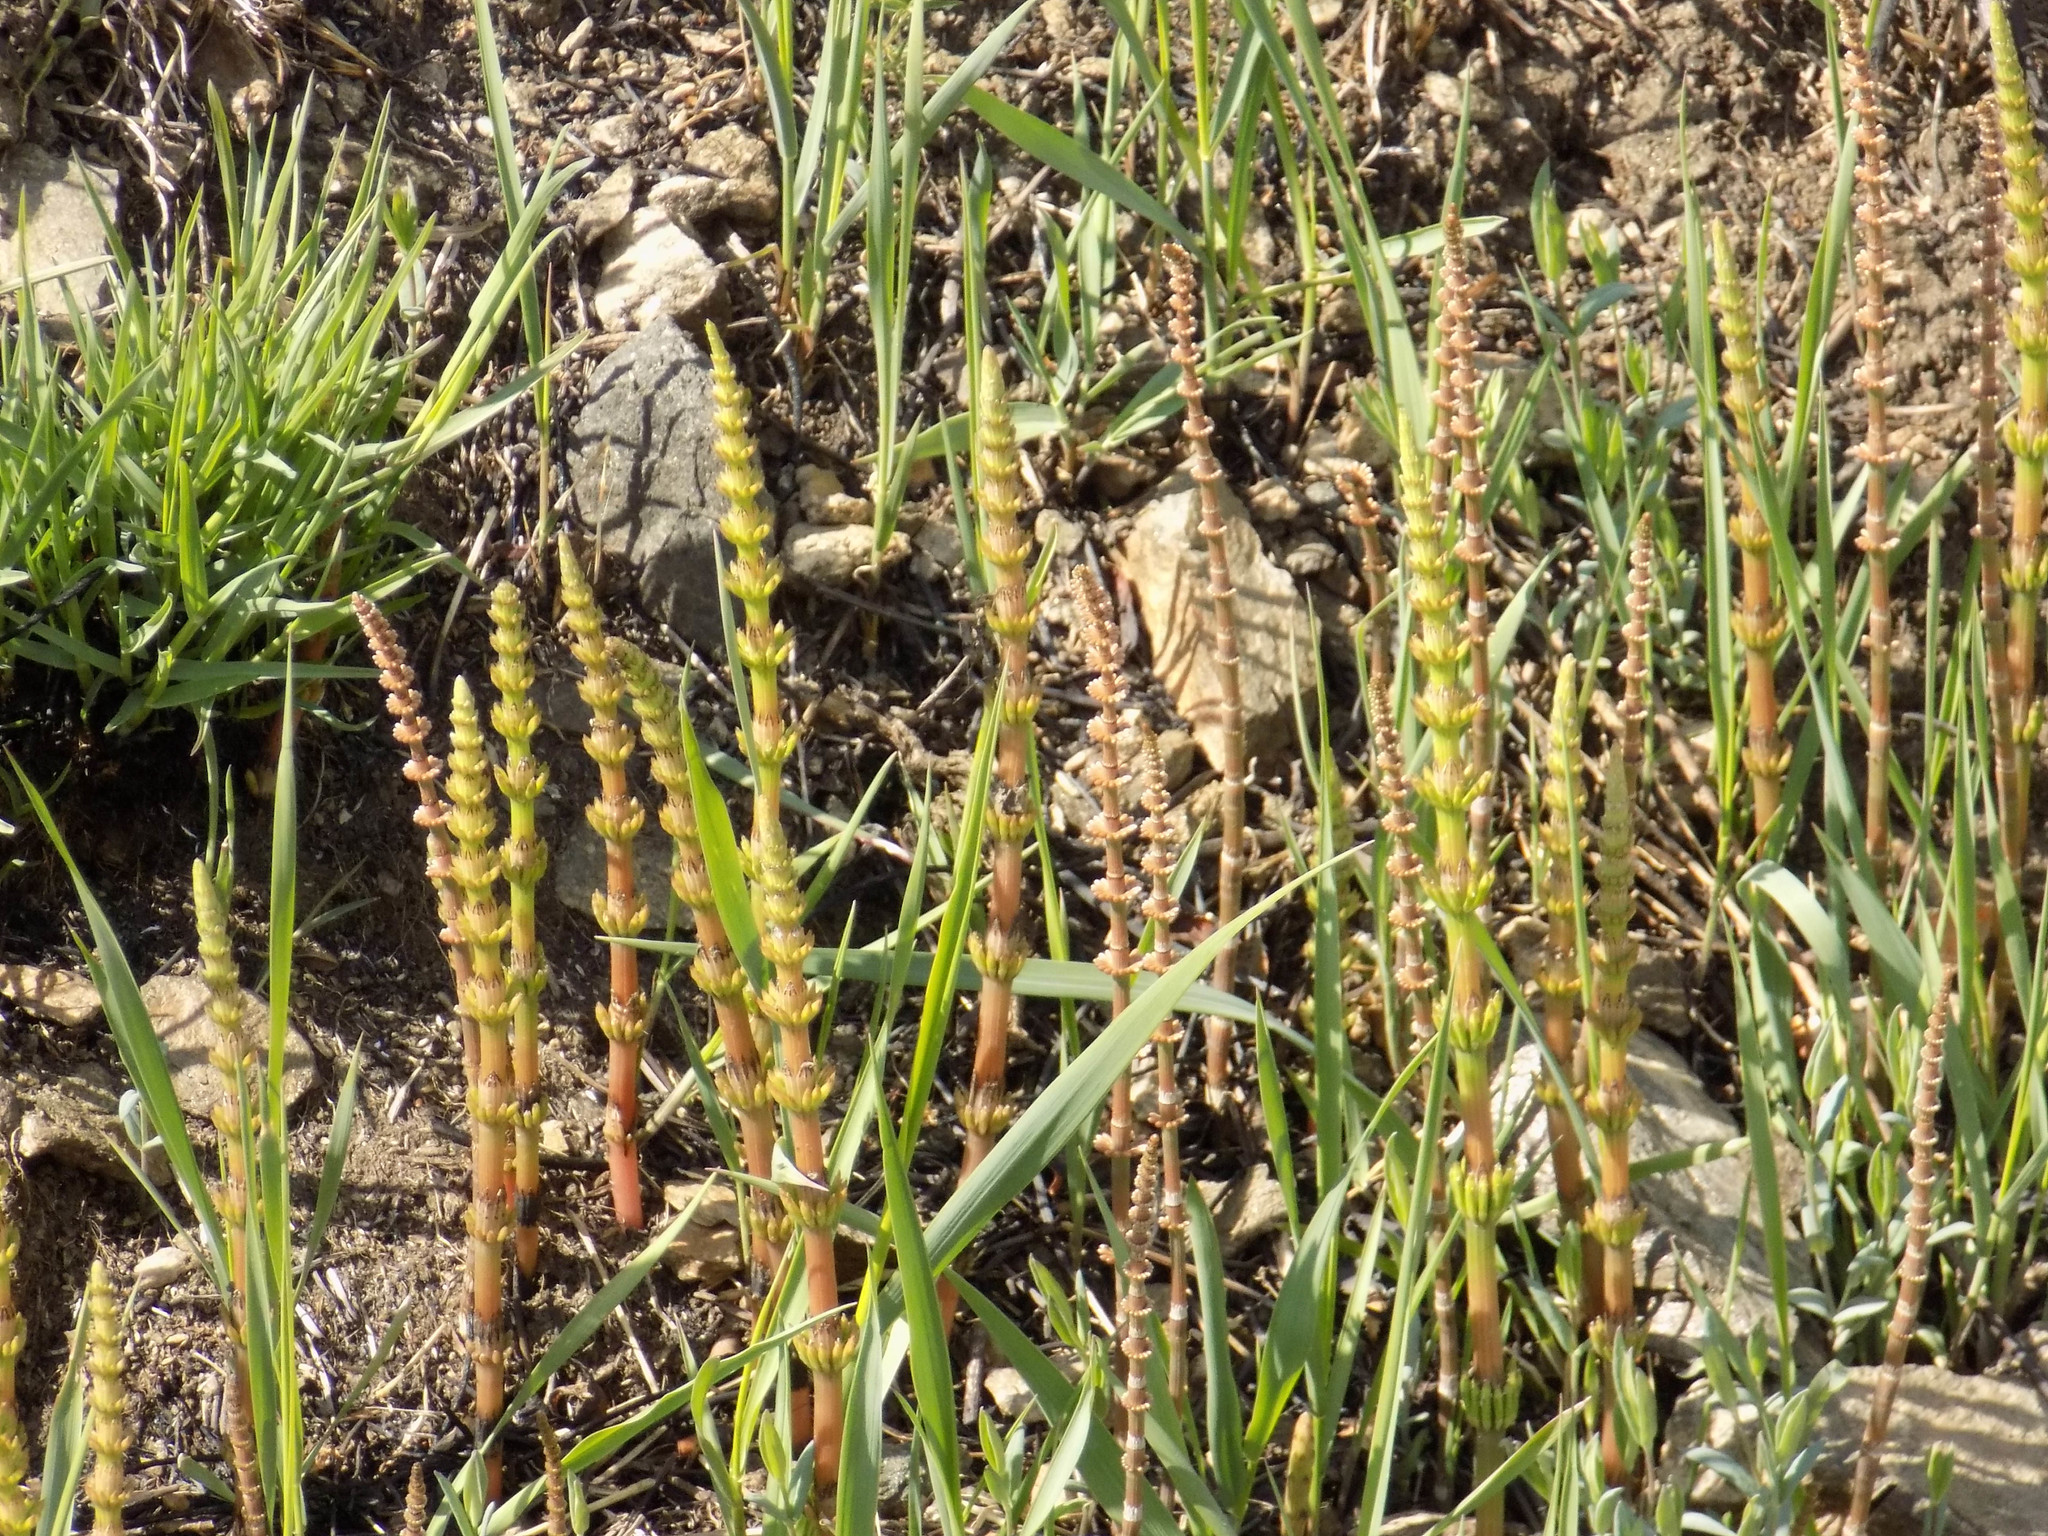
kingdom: Plantae
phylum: Tracheophyta
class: Polypodiopsida
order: Equisetales
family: Equisetaceae
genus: Equisetum
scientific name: Equisetum arvense
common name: Field horsetail
